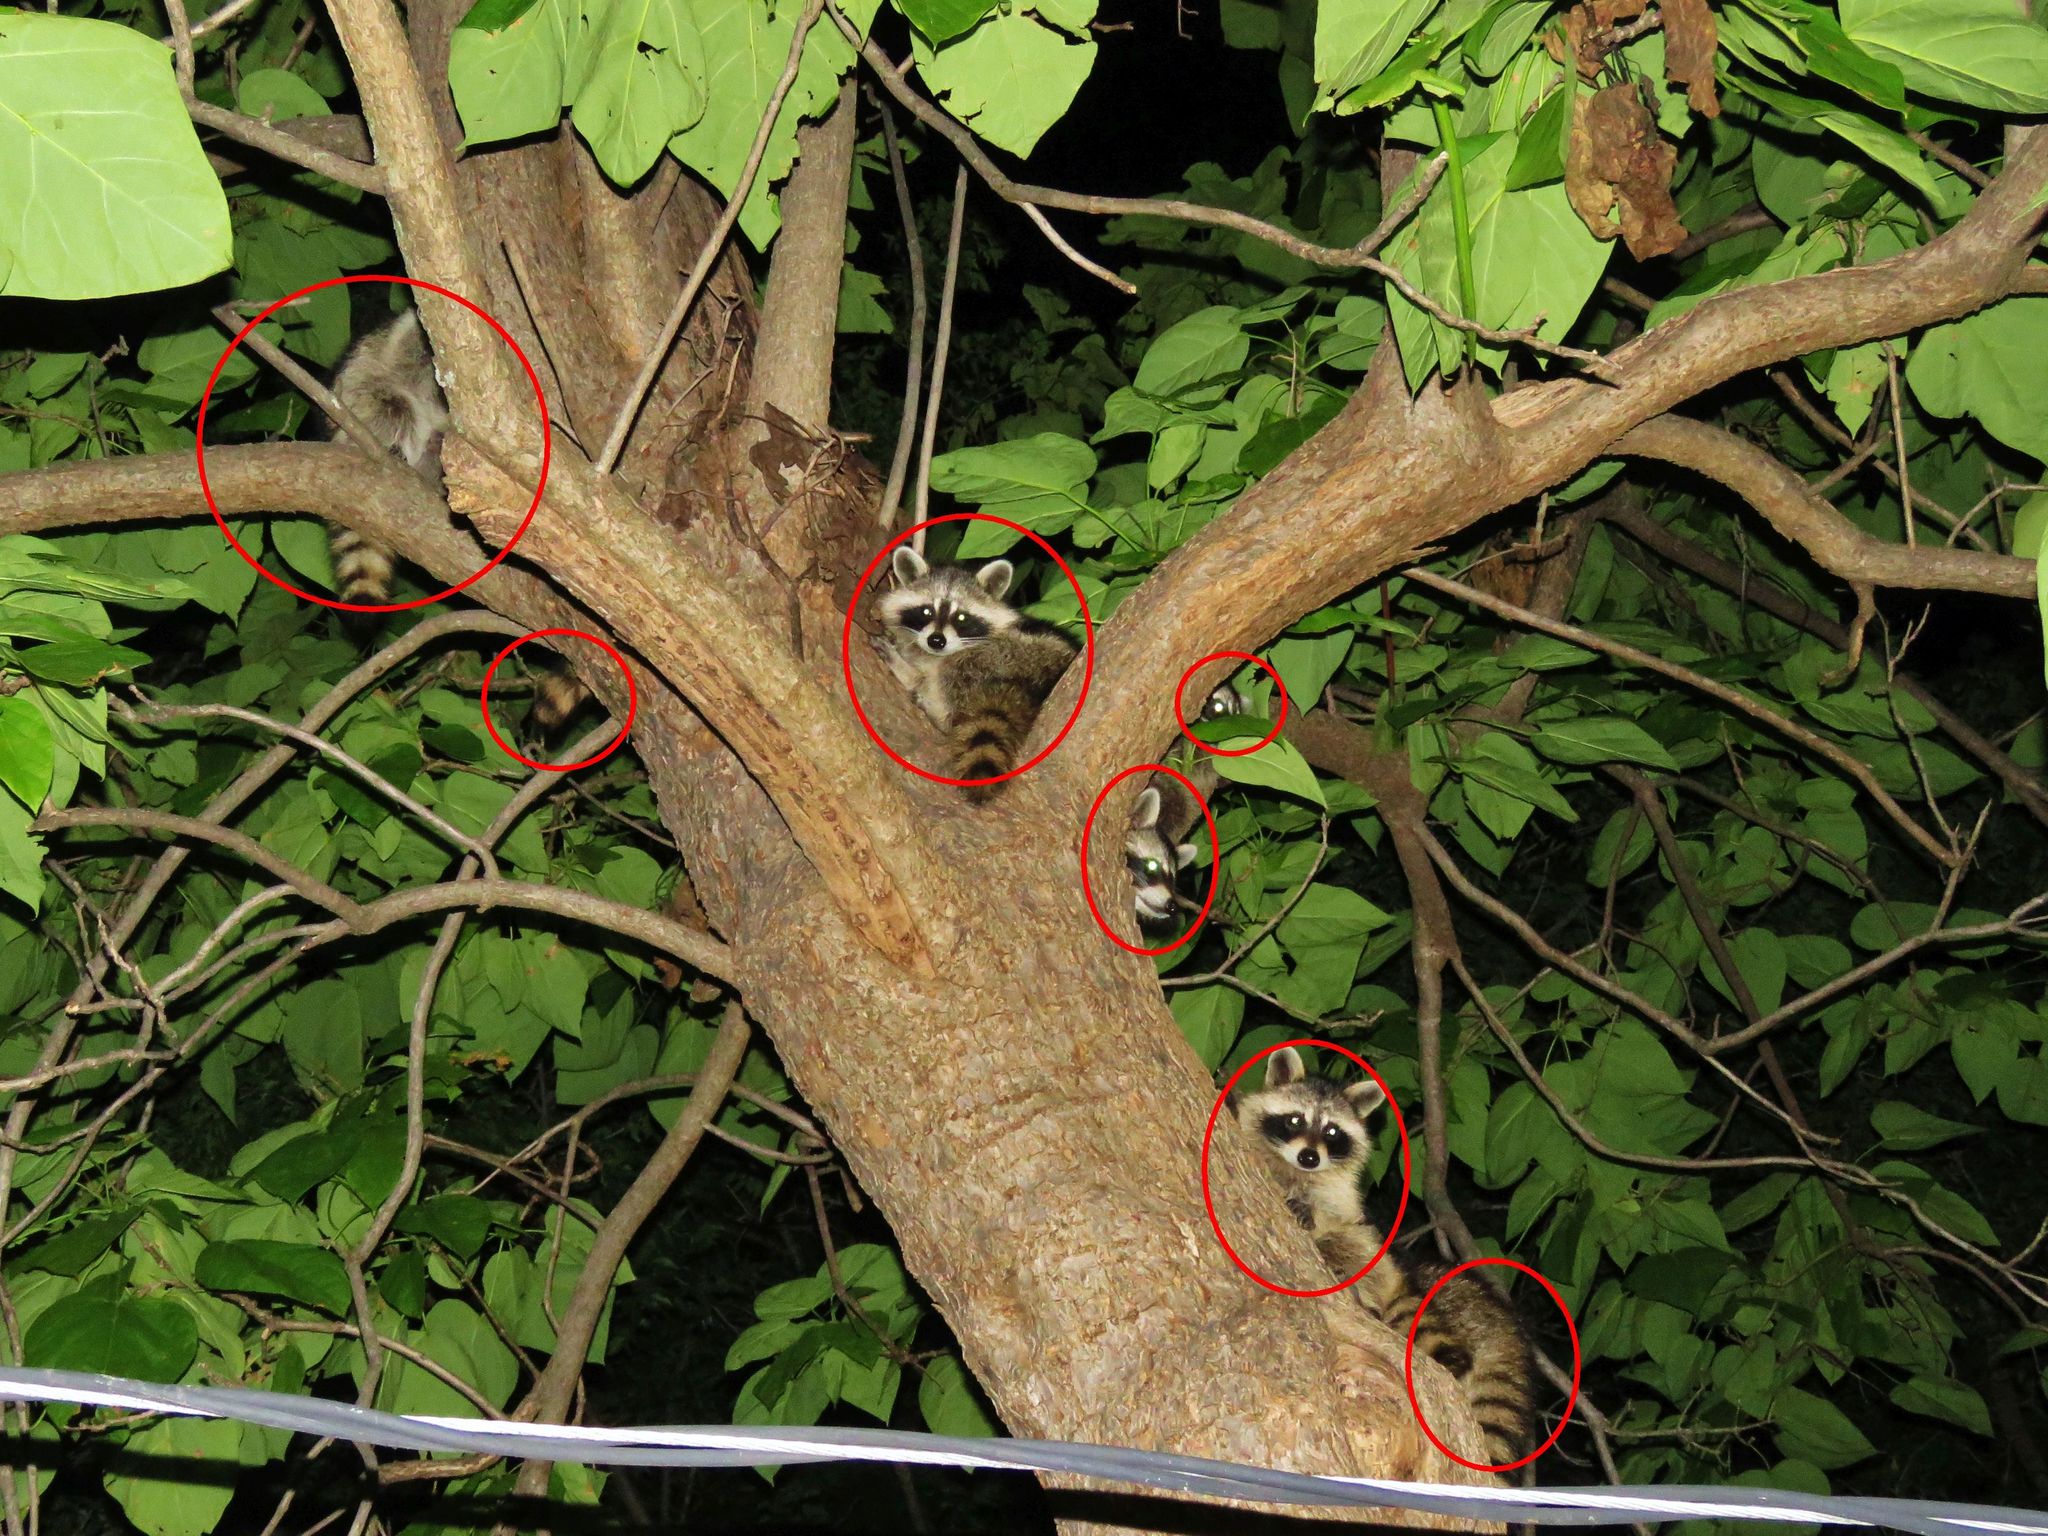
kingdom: Animalia
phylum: Chordata
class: Mammalia
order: Carnivora
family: Procyonidae
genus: Procyon
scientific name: Procyon lotor
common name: Raccoon
